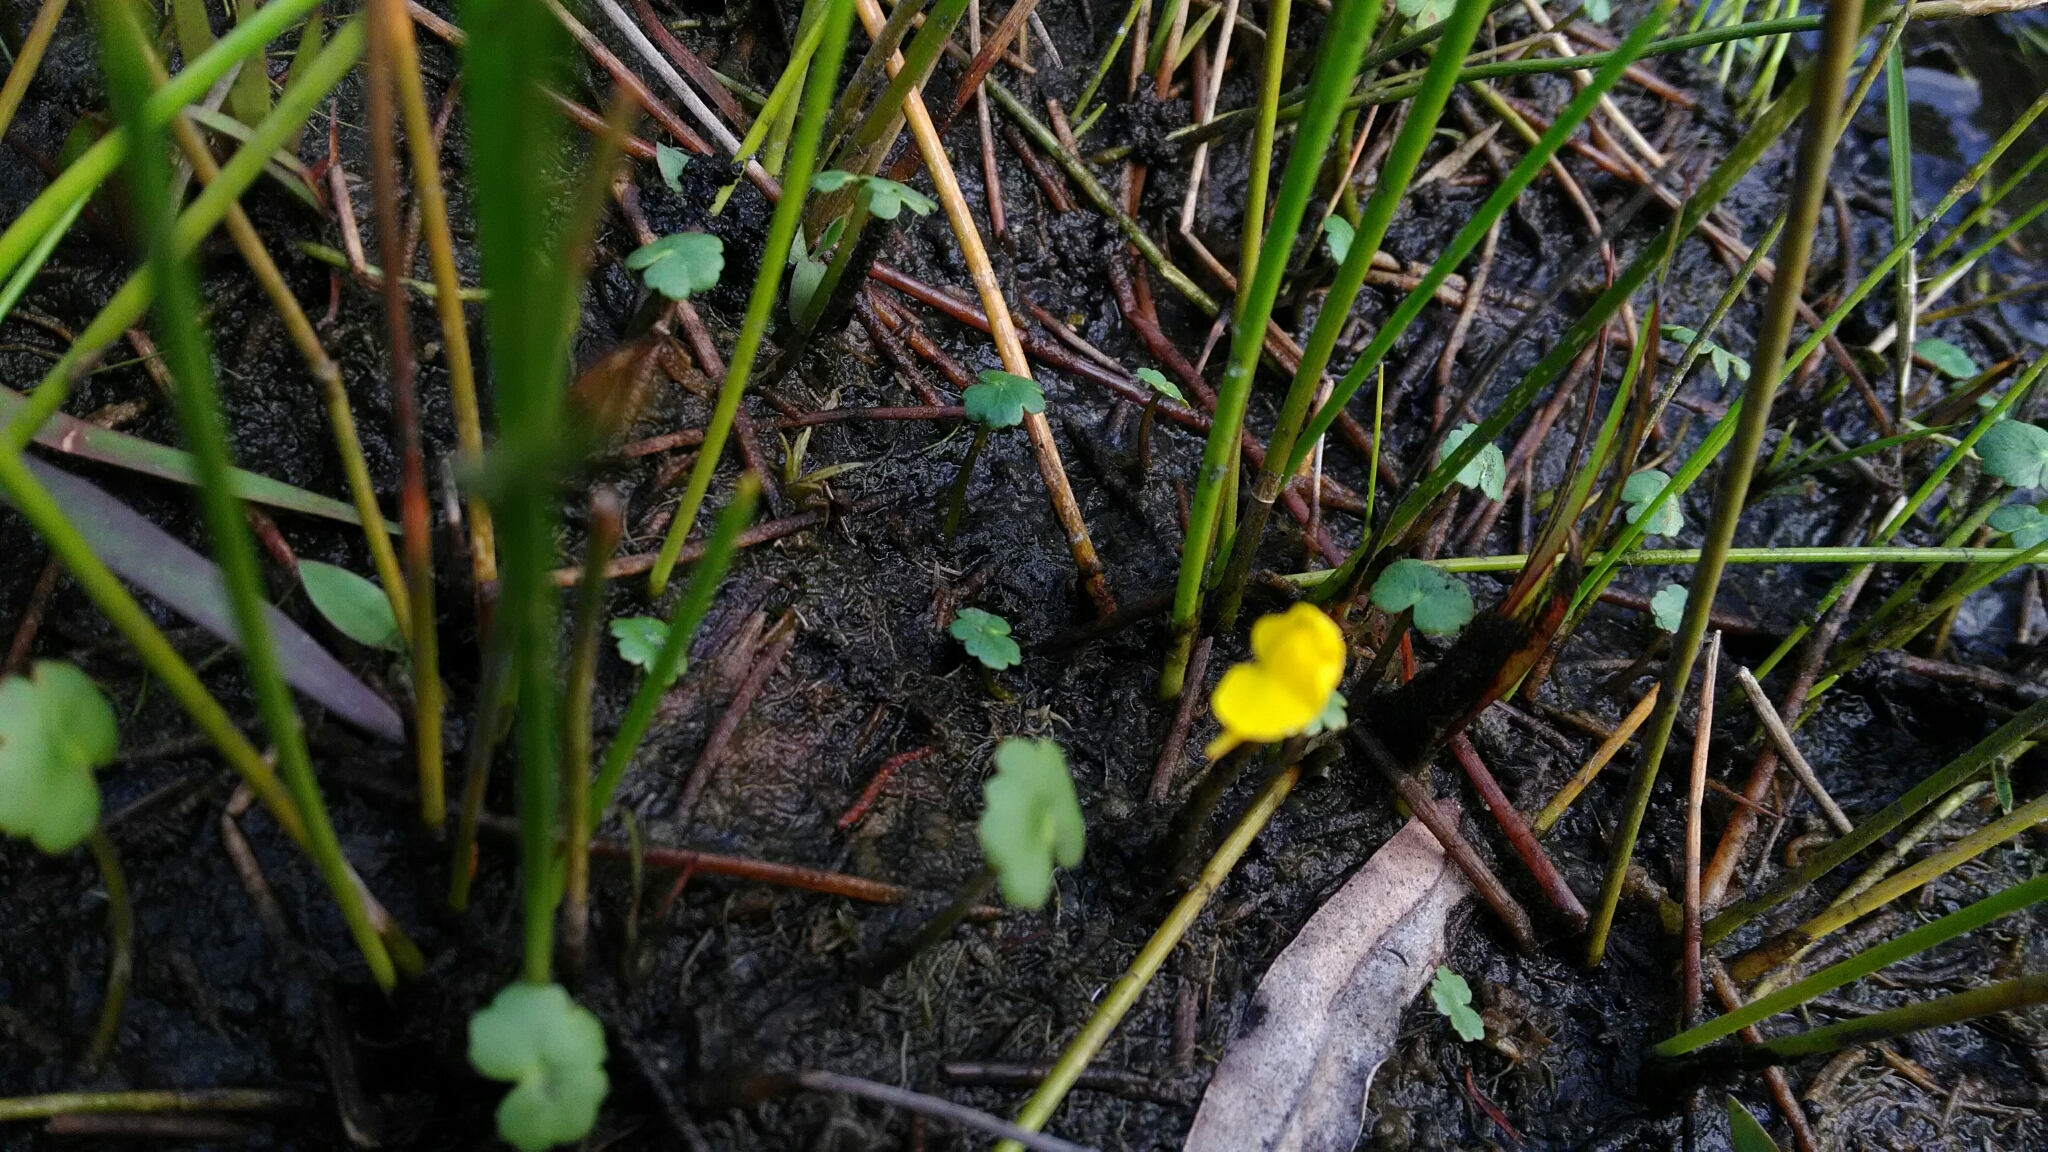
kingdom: Plantae
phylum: Tracheophyta
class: Magnoliopsida
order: Lamiales
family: Lentibulariaceae
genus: Utricularia
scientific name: Utricularia gibba
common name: Humped bladderwort
